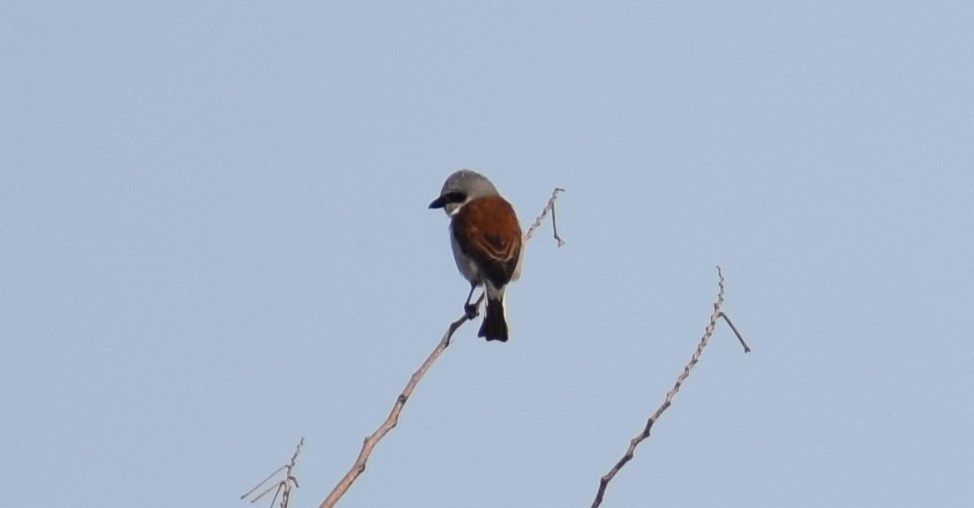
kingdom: Animalia
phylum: Chordata
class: Aves
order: Passeriformes
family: Laniidae
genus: Lanius
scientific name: Lanius collurio
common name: Red-backed shrike
